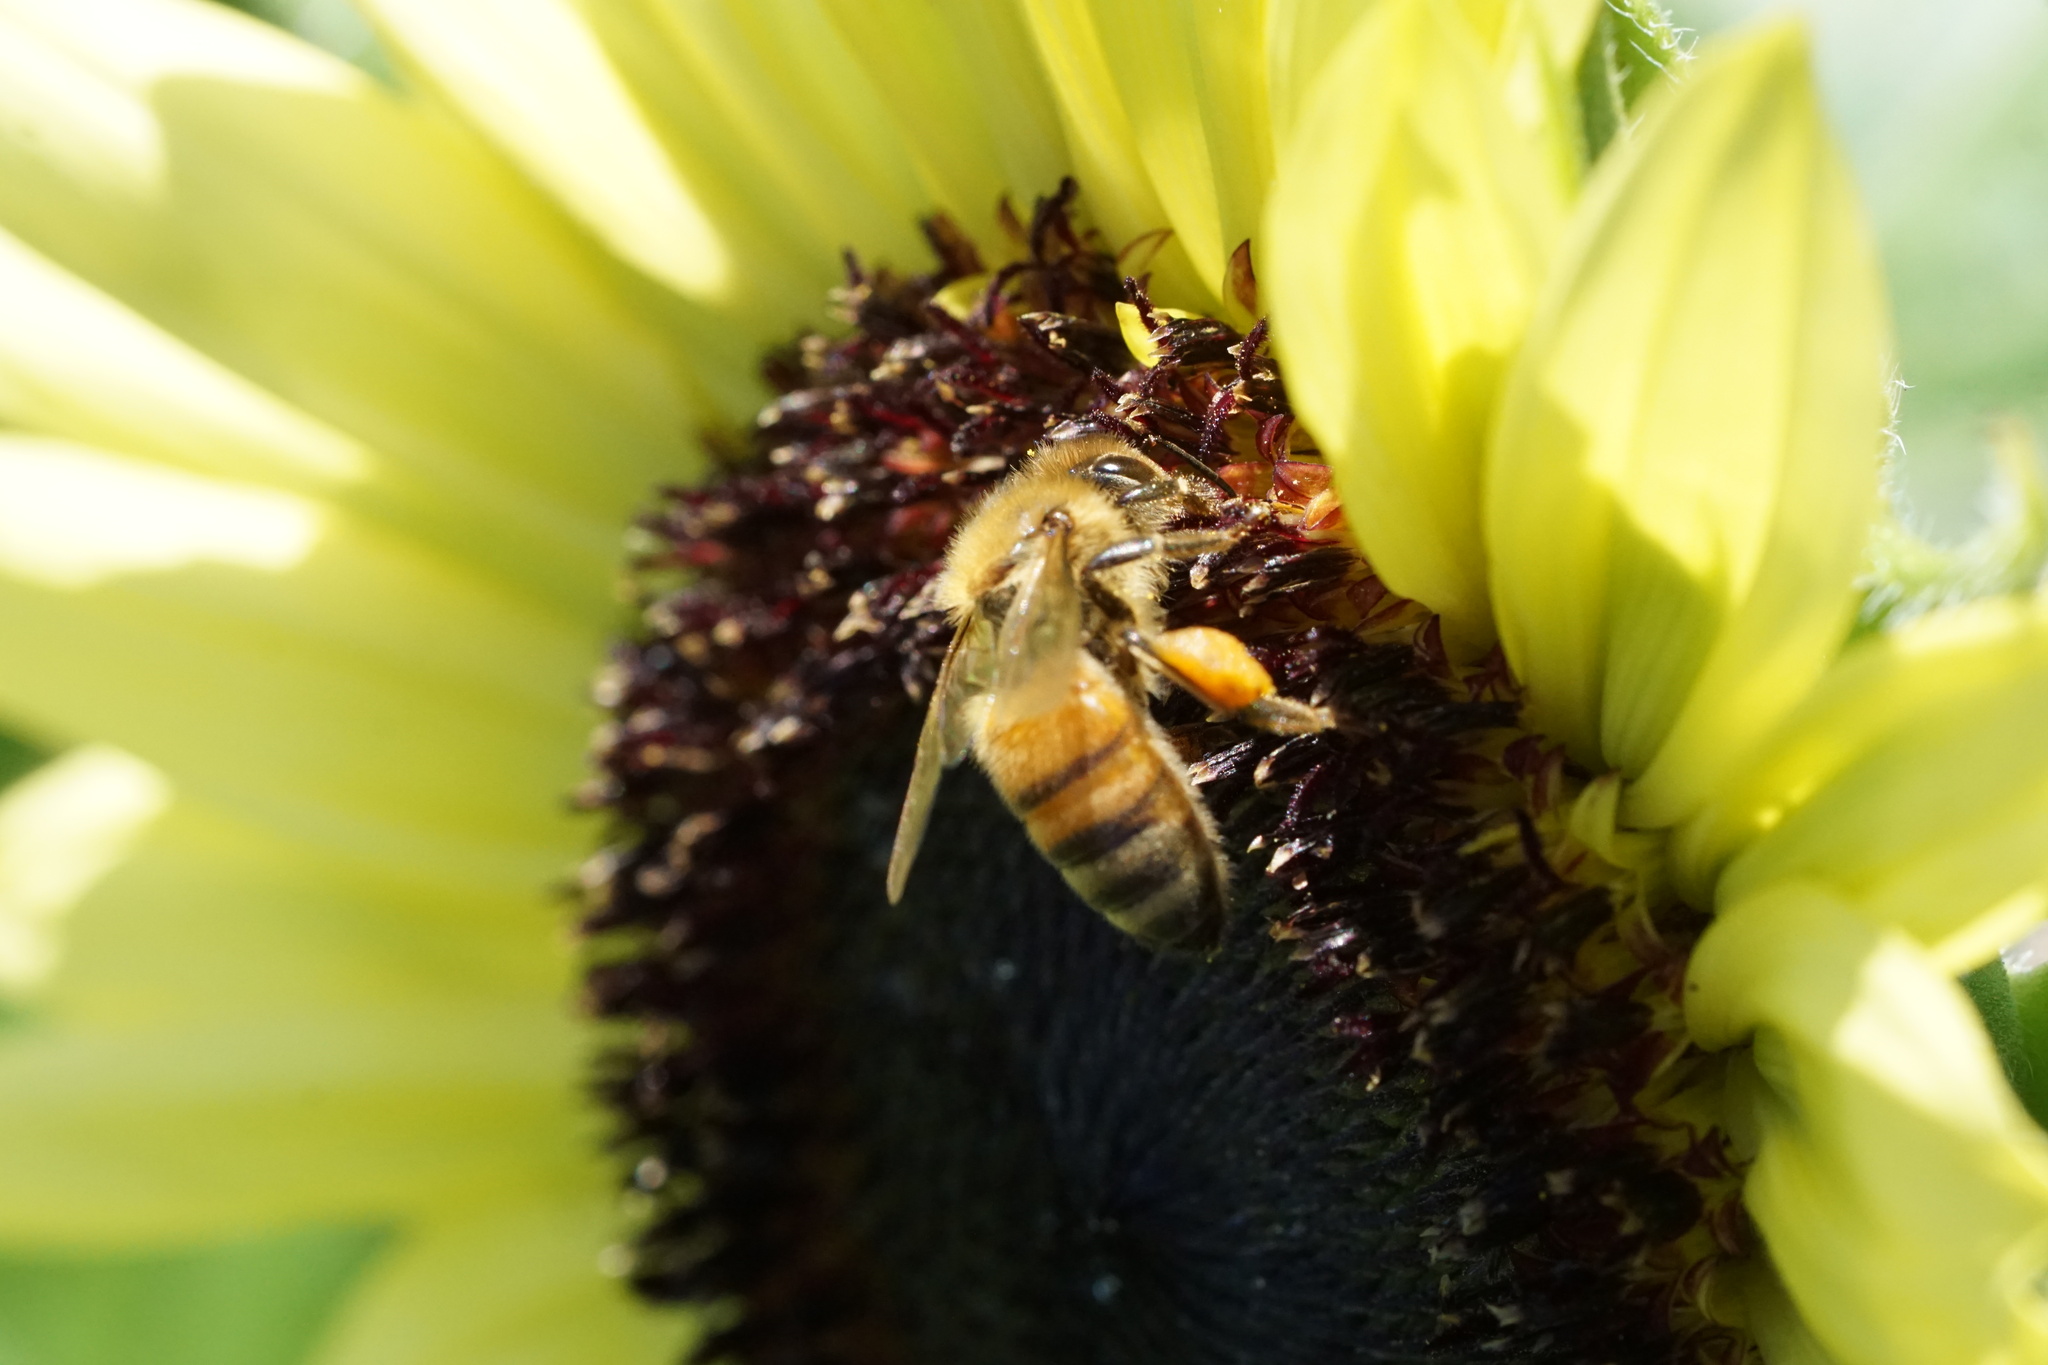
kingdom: Animalia
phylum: Arthropoda
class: Insecta
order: Hymenoptera
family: Apidae
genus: Apis
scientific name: Apis mellifera
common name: Honey bee
